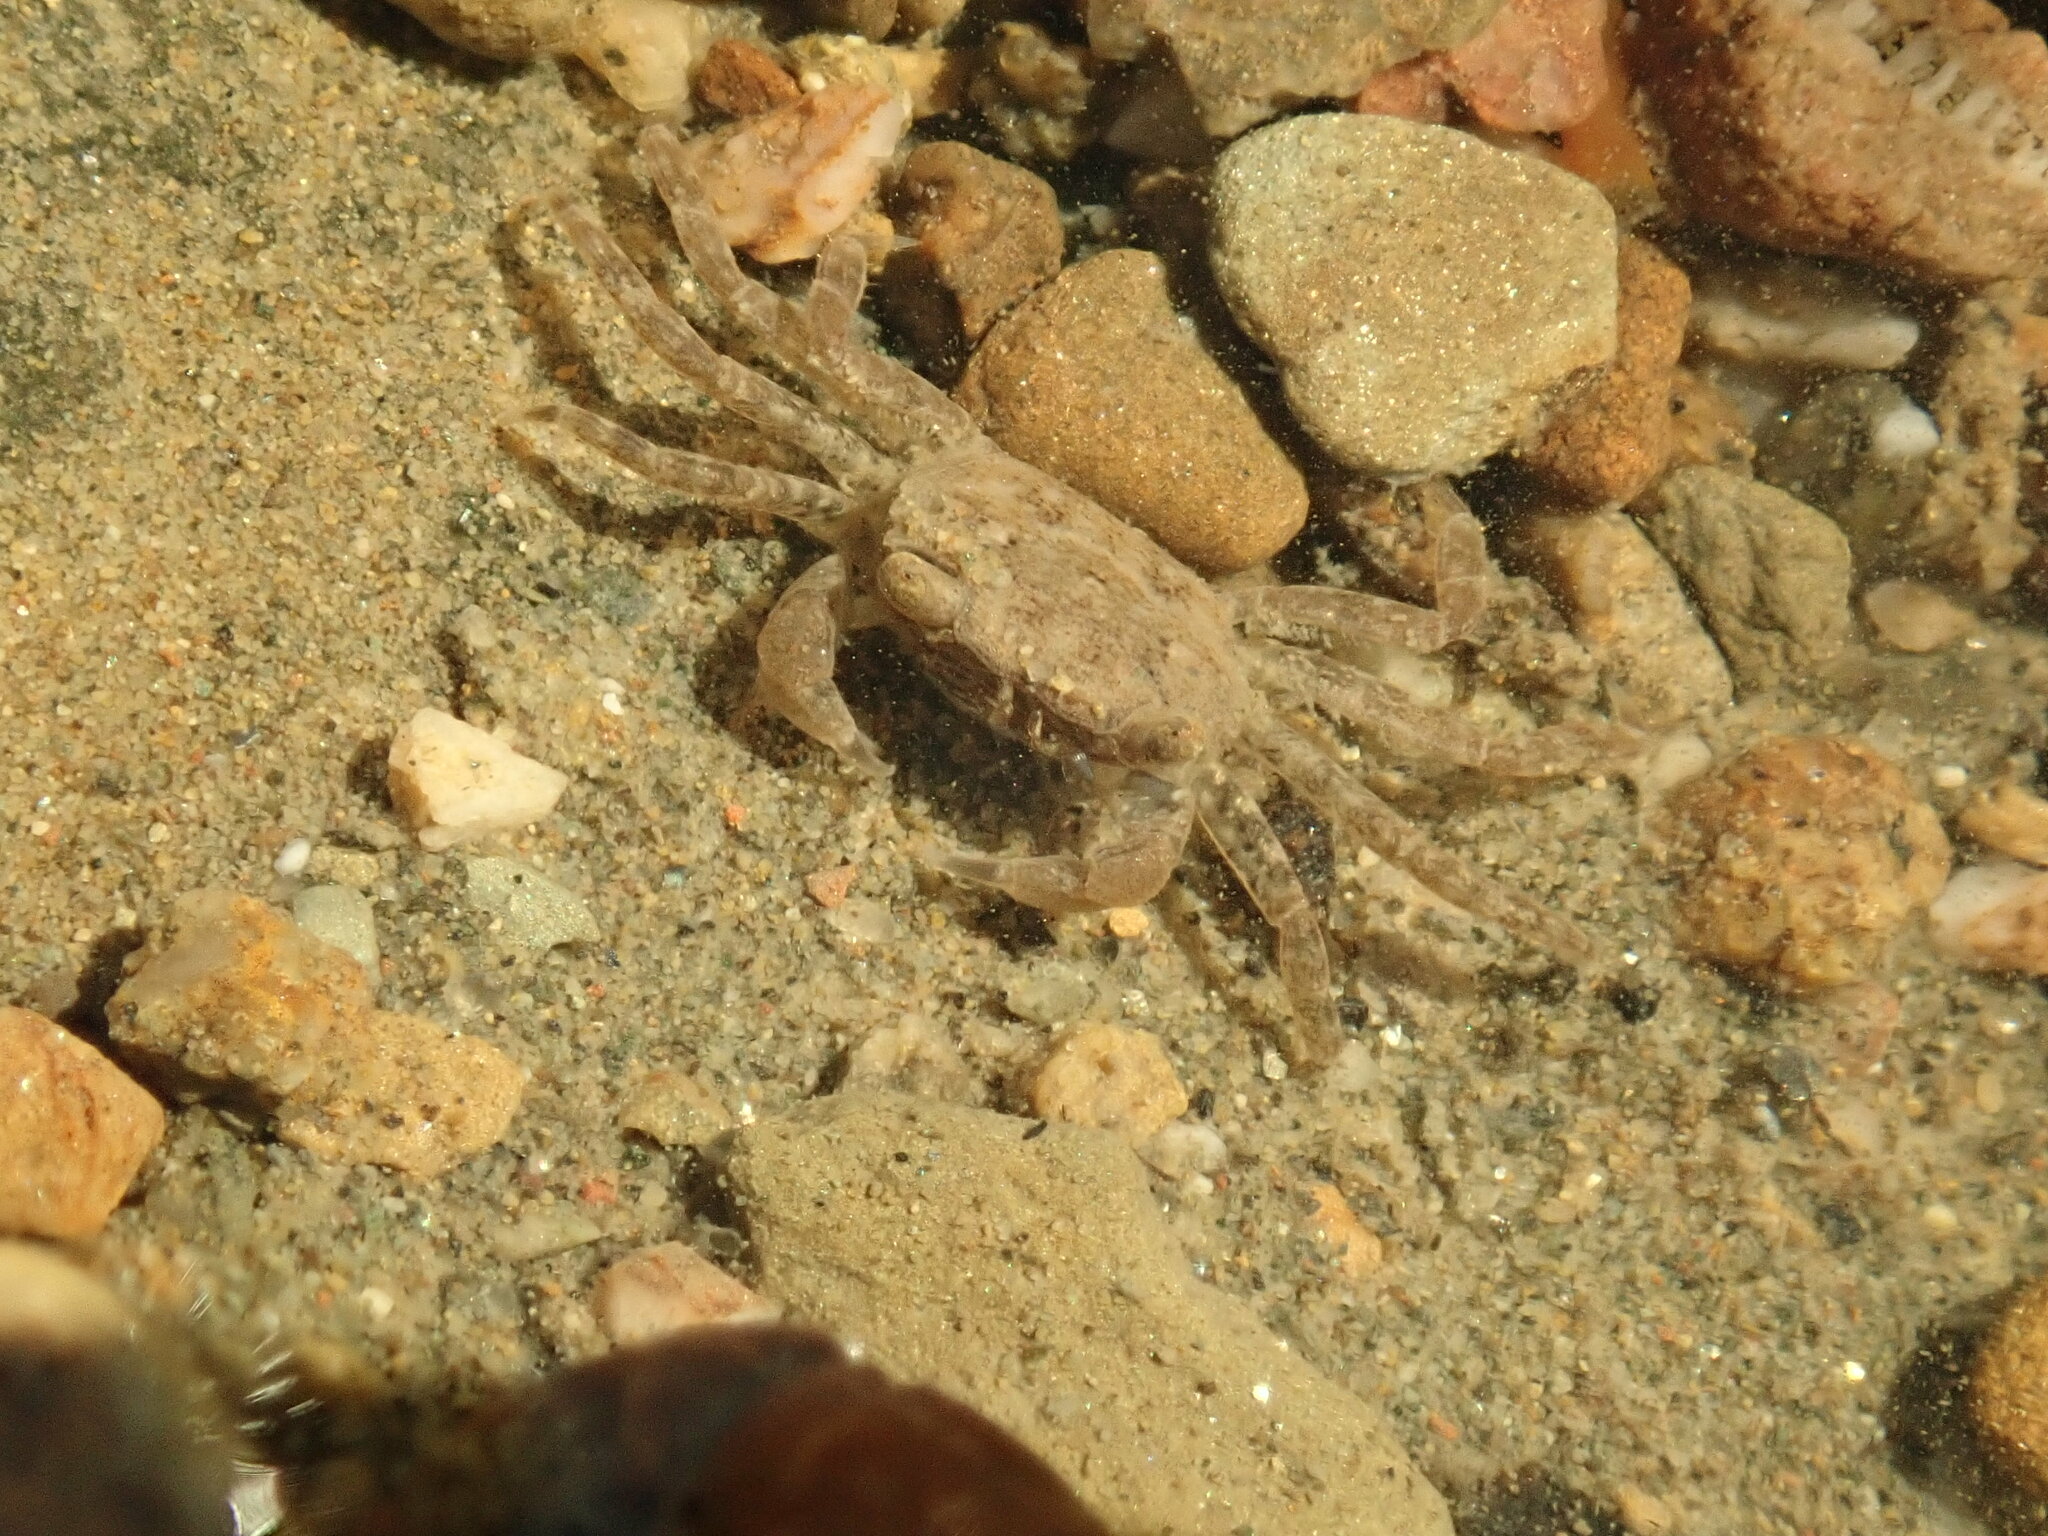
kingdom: Animalia
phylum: Arthropoda
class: Malacostraca
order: Decapoda
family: Varunidae
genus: Hemigrapsus
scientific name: Hemigrapsus oregonensis
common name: Yellow shore crab
